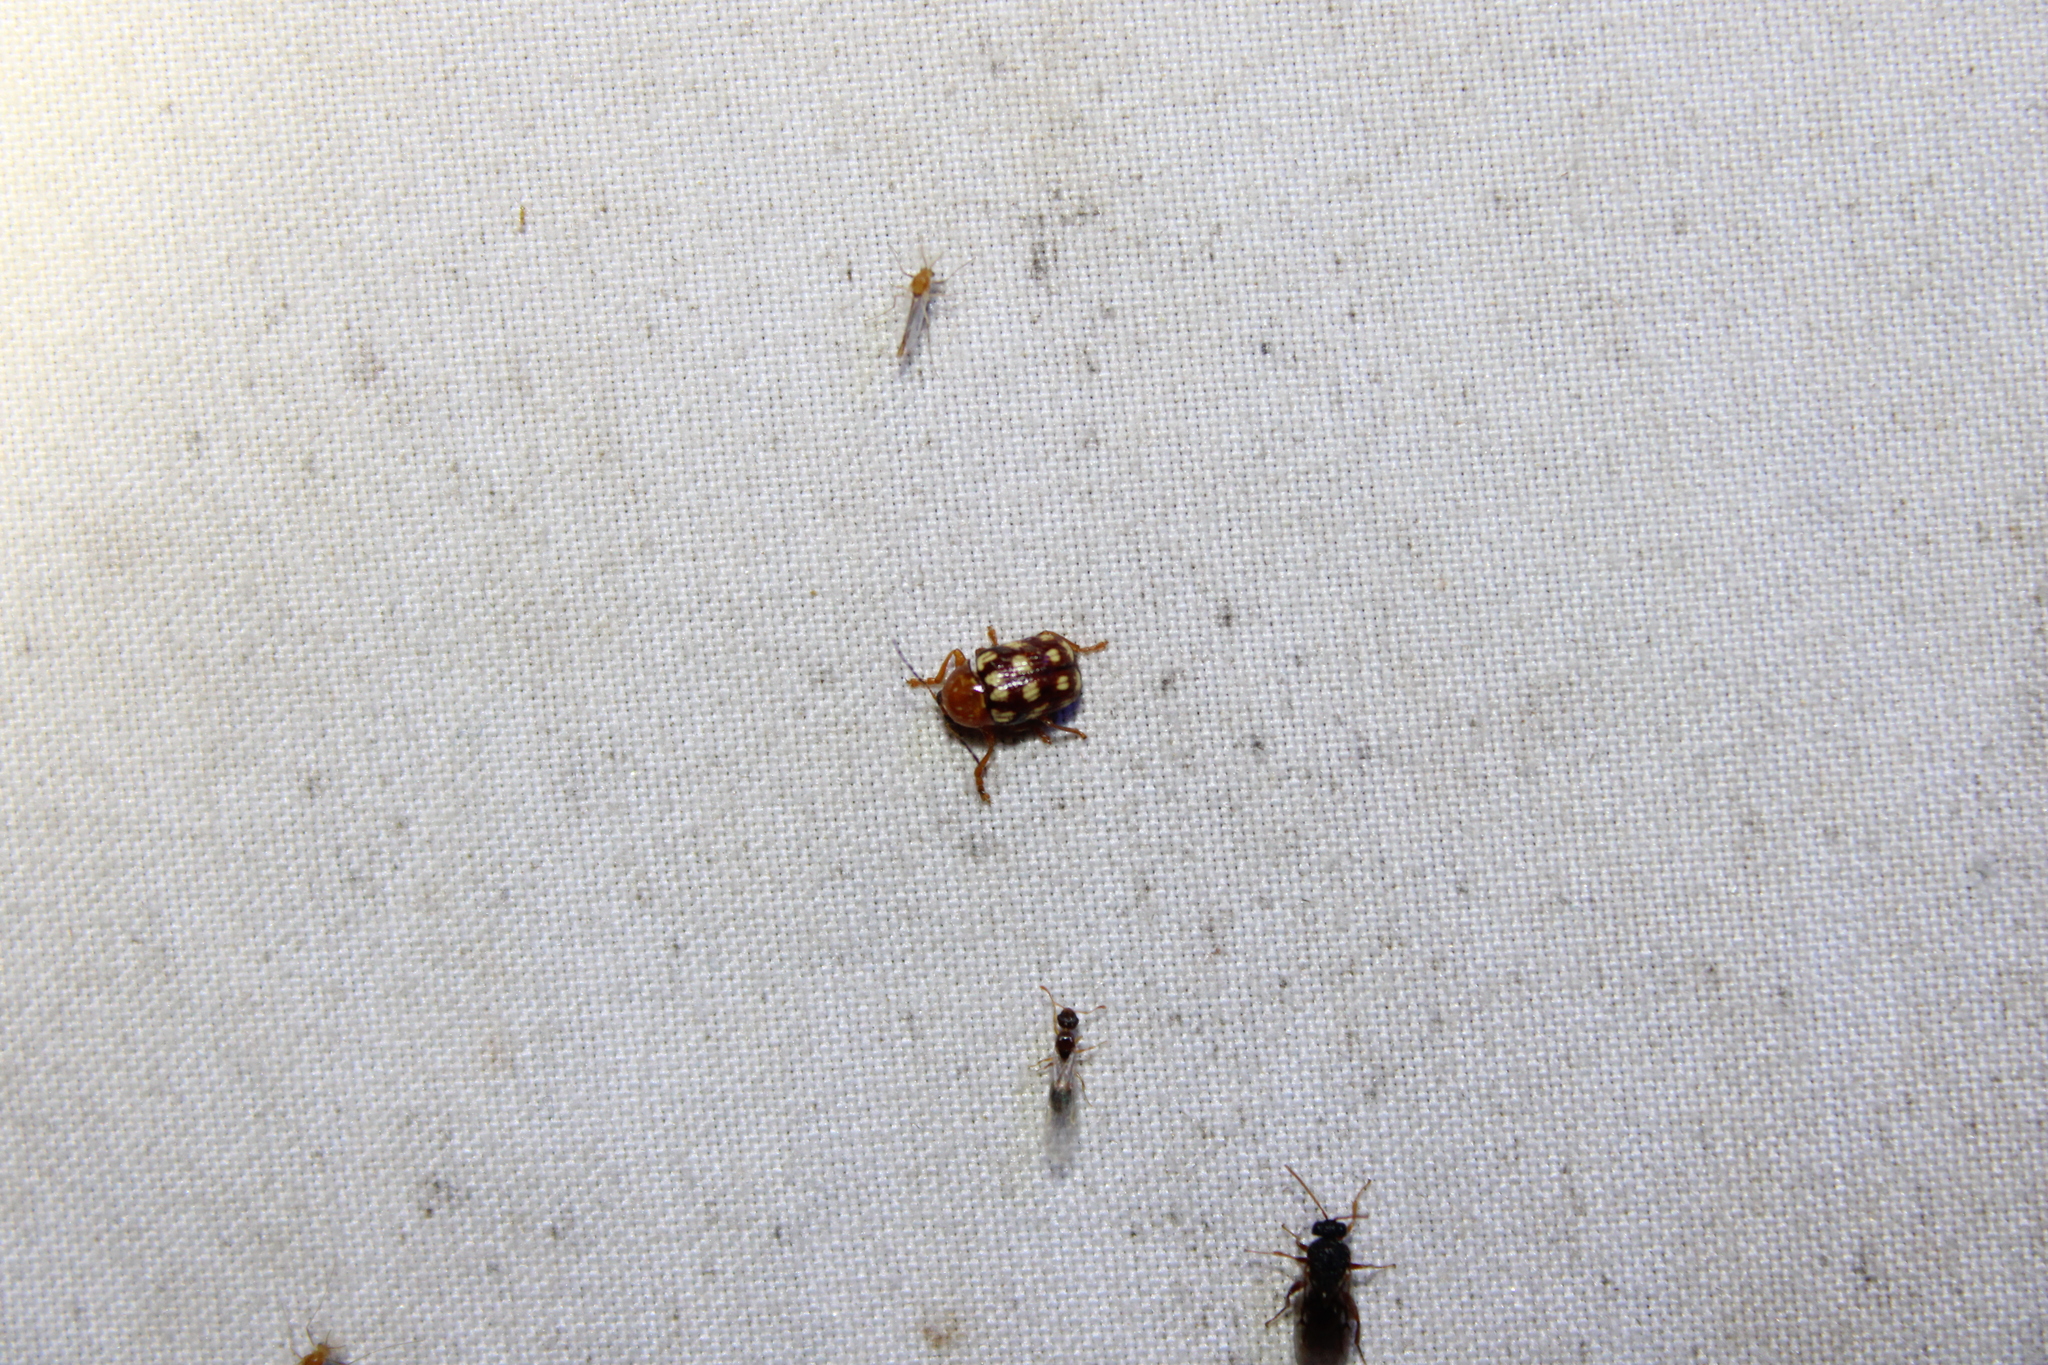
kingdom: Animalia
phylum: Arthropoda
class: Insecta
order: Coleoptera
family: Chrysomelidae
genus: Cryptocephalus
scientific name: Cryptocephalus guttulatus
